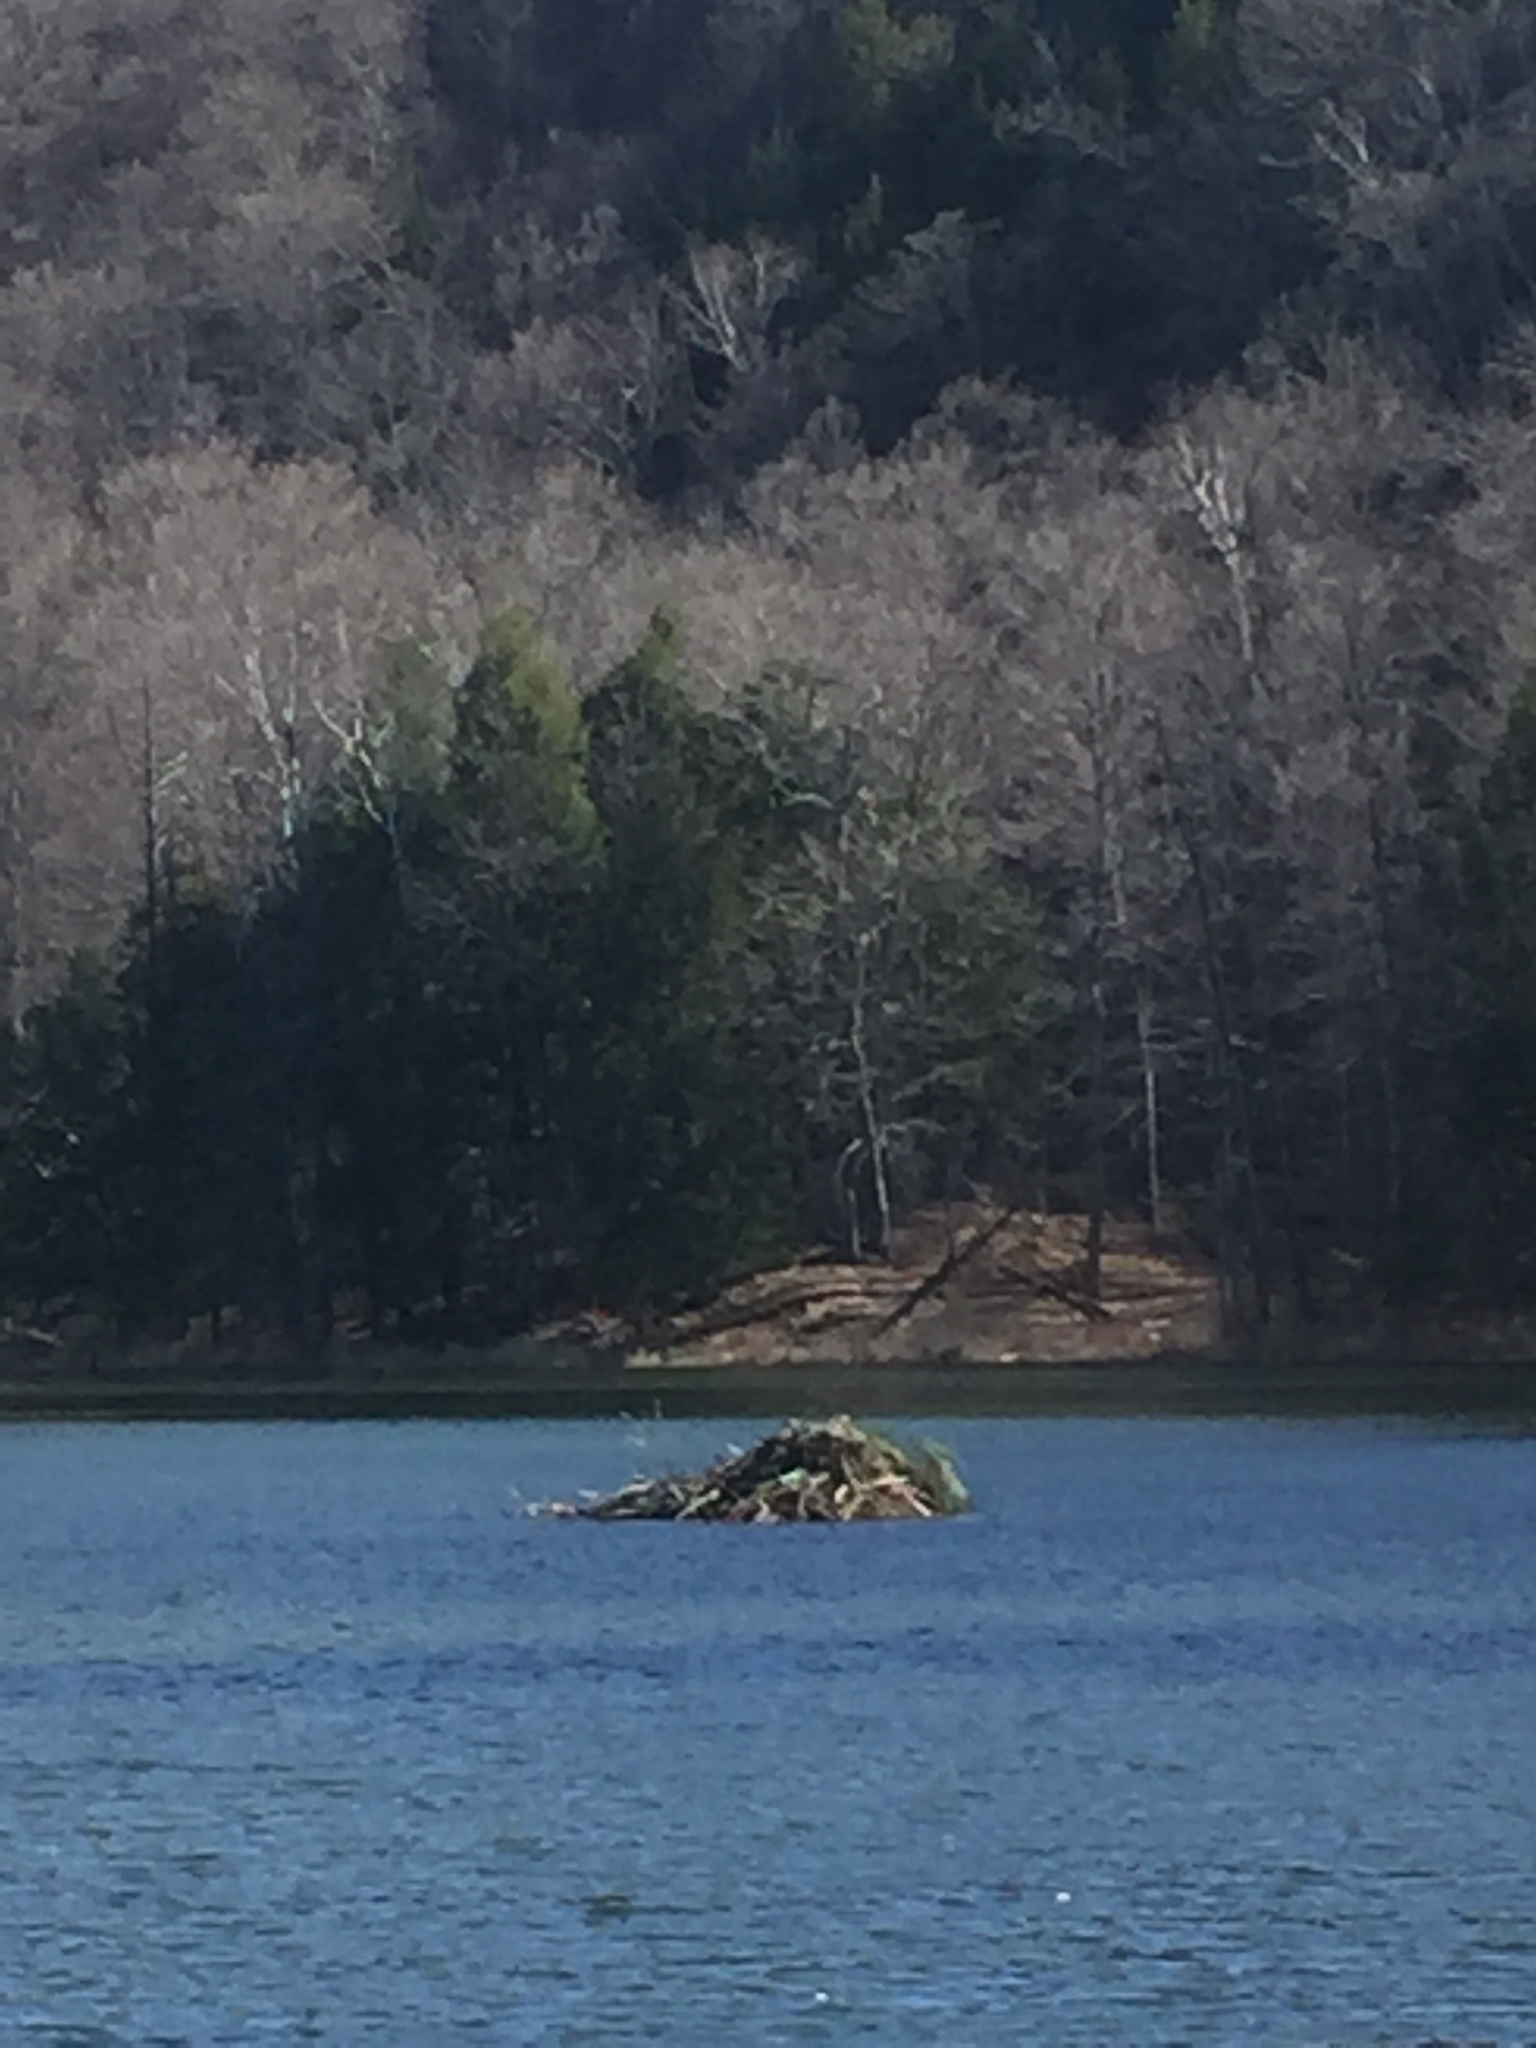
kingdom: Animalia
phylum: Chordata
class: Mammalia
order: Rodentia
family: Castoridae
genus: Castor
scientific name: Castor canadensis
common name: American beaver
